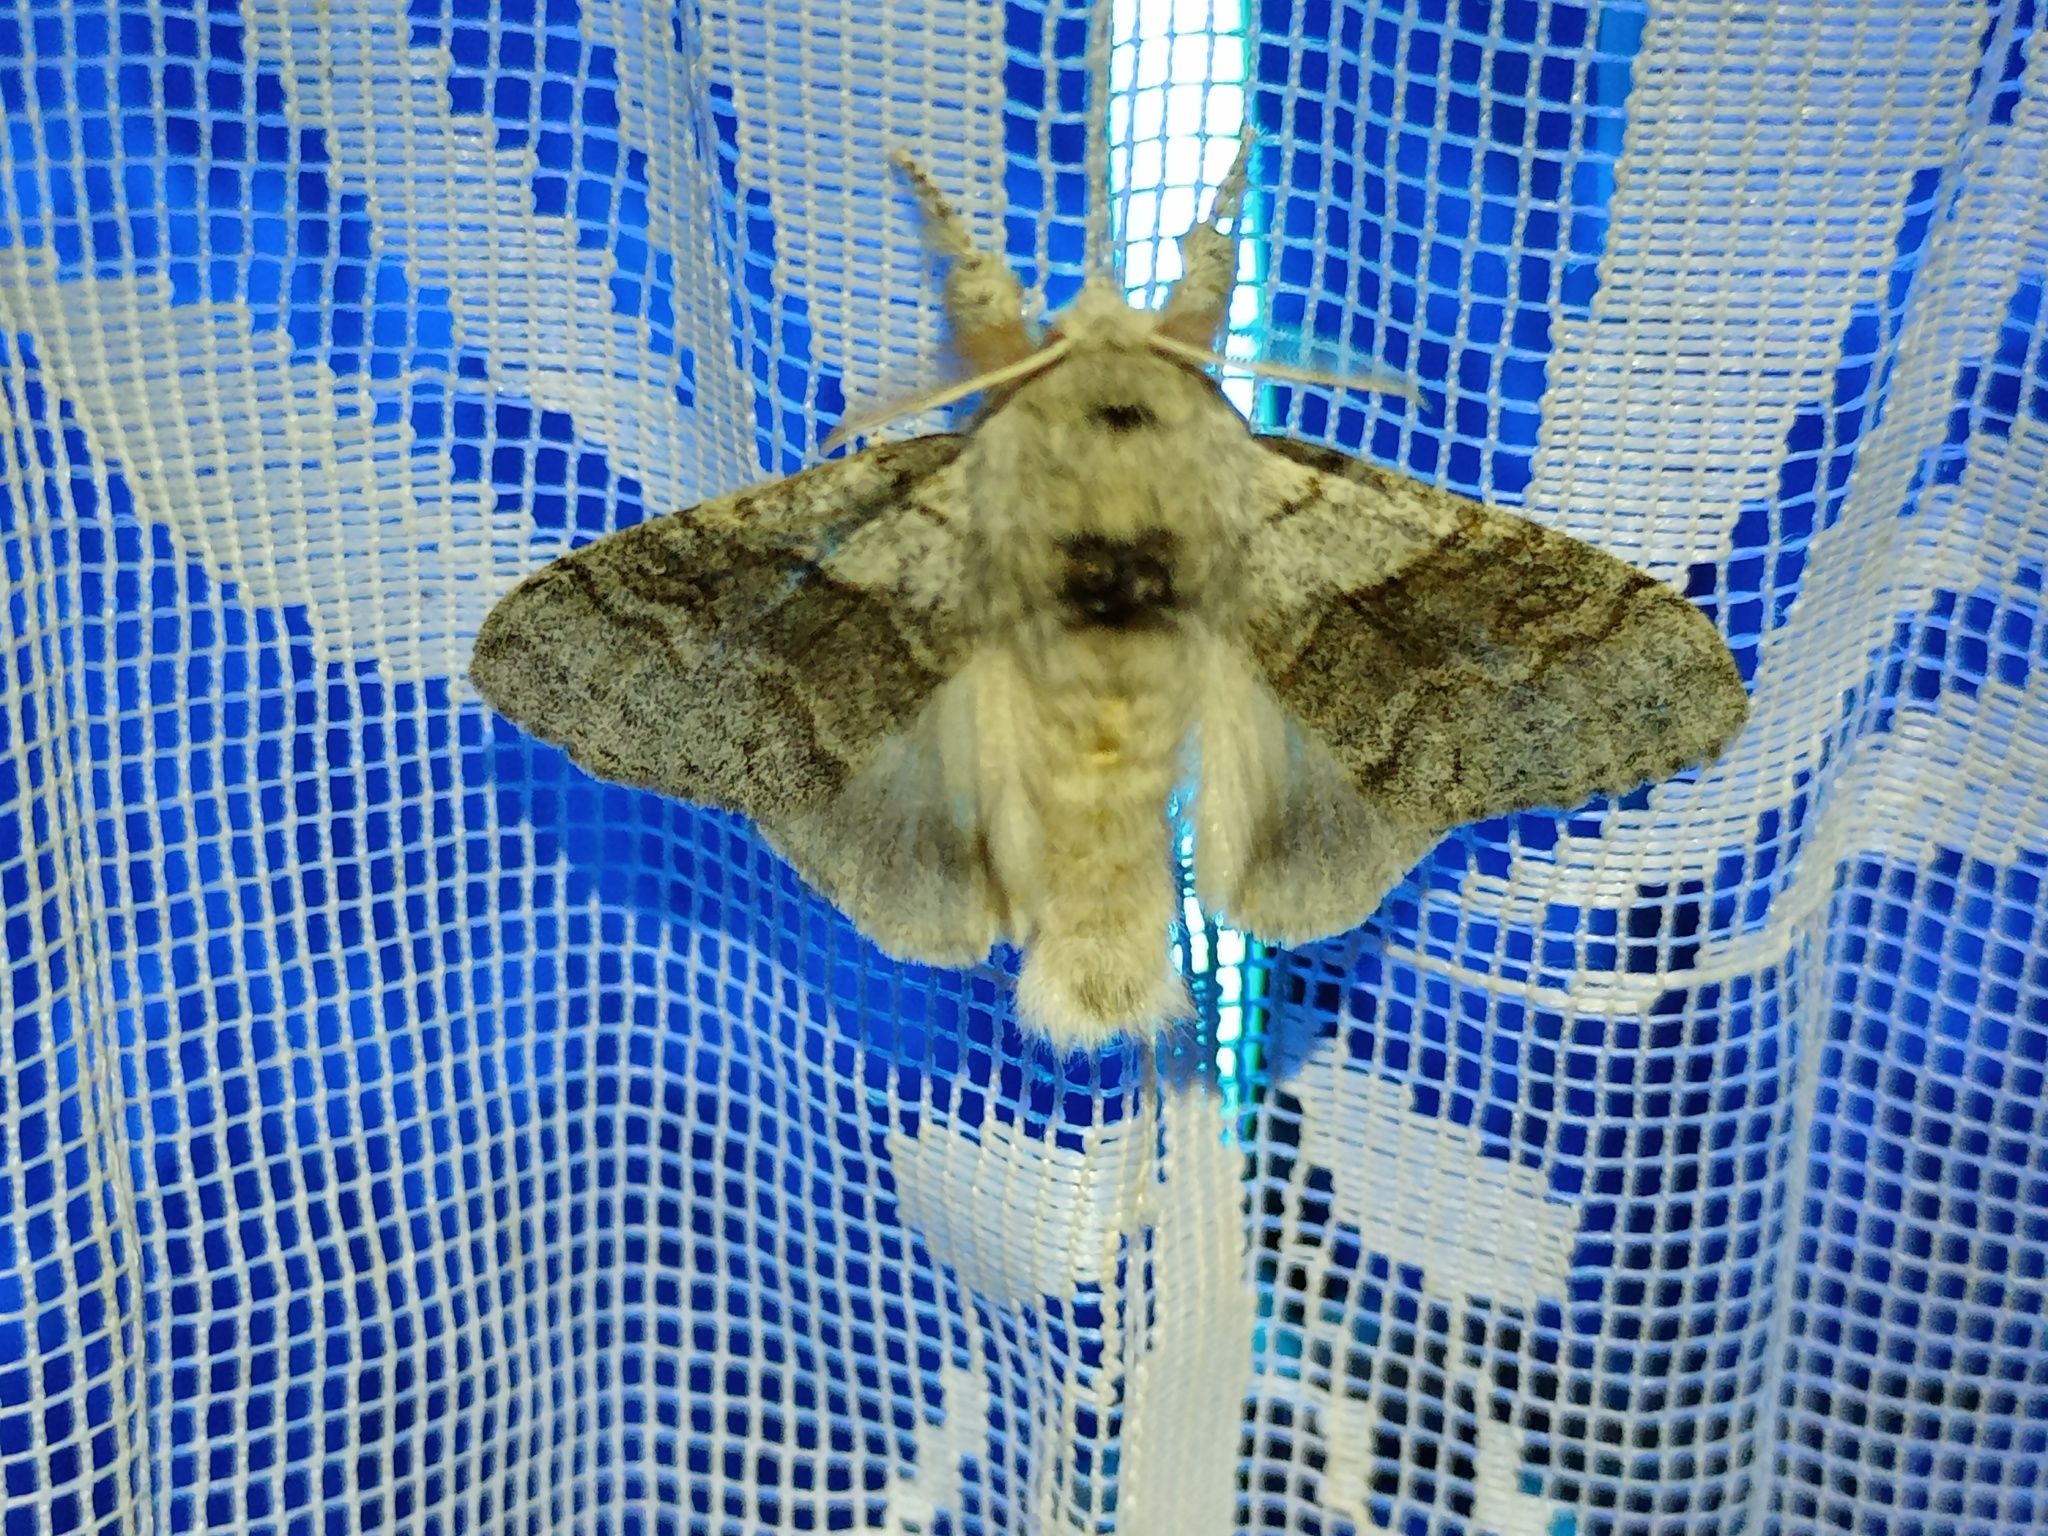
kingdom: Animalia
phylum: Arthropoda
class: Insecta
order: Lepidoptera
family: Erebidae
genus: Calliteara
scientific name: Calliteara pudibunda
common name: Pale tussock
